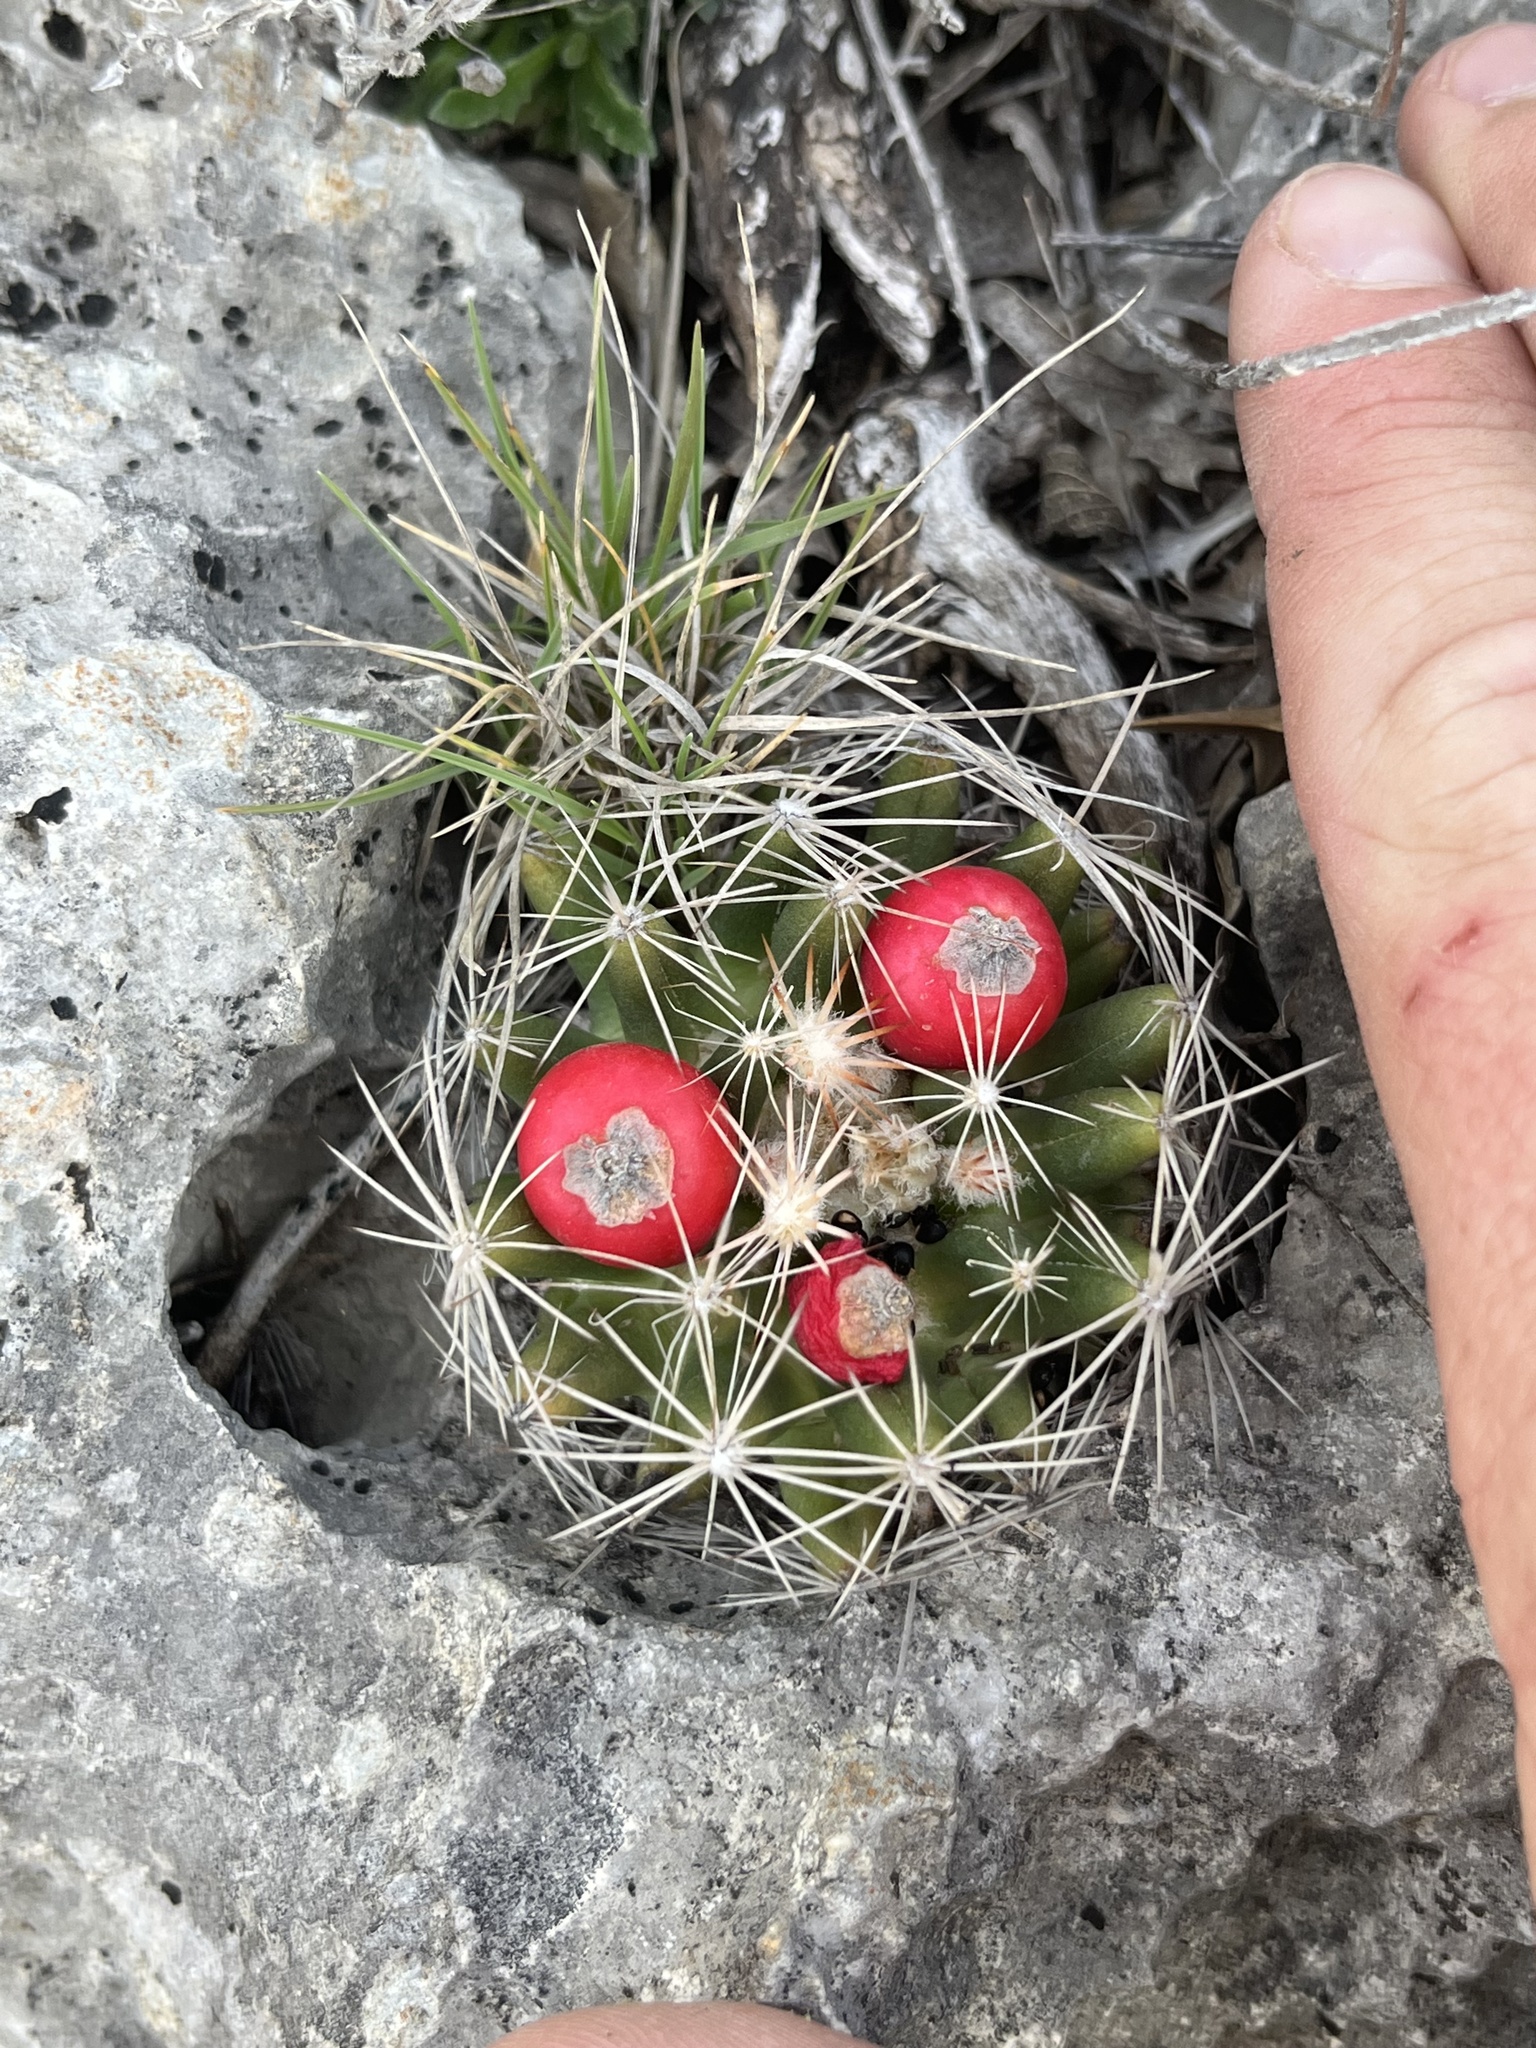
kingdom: Plantae
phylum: Tracheophyta
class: Magnoliopsida
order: Caryophyllales
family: Cactaceae
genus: Pelecyphora
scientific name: Pelecyphora missouriensis
